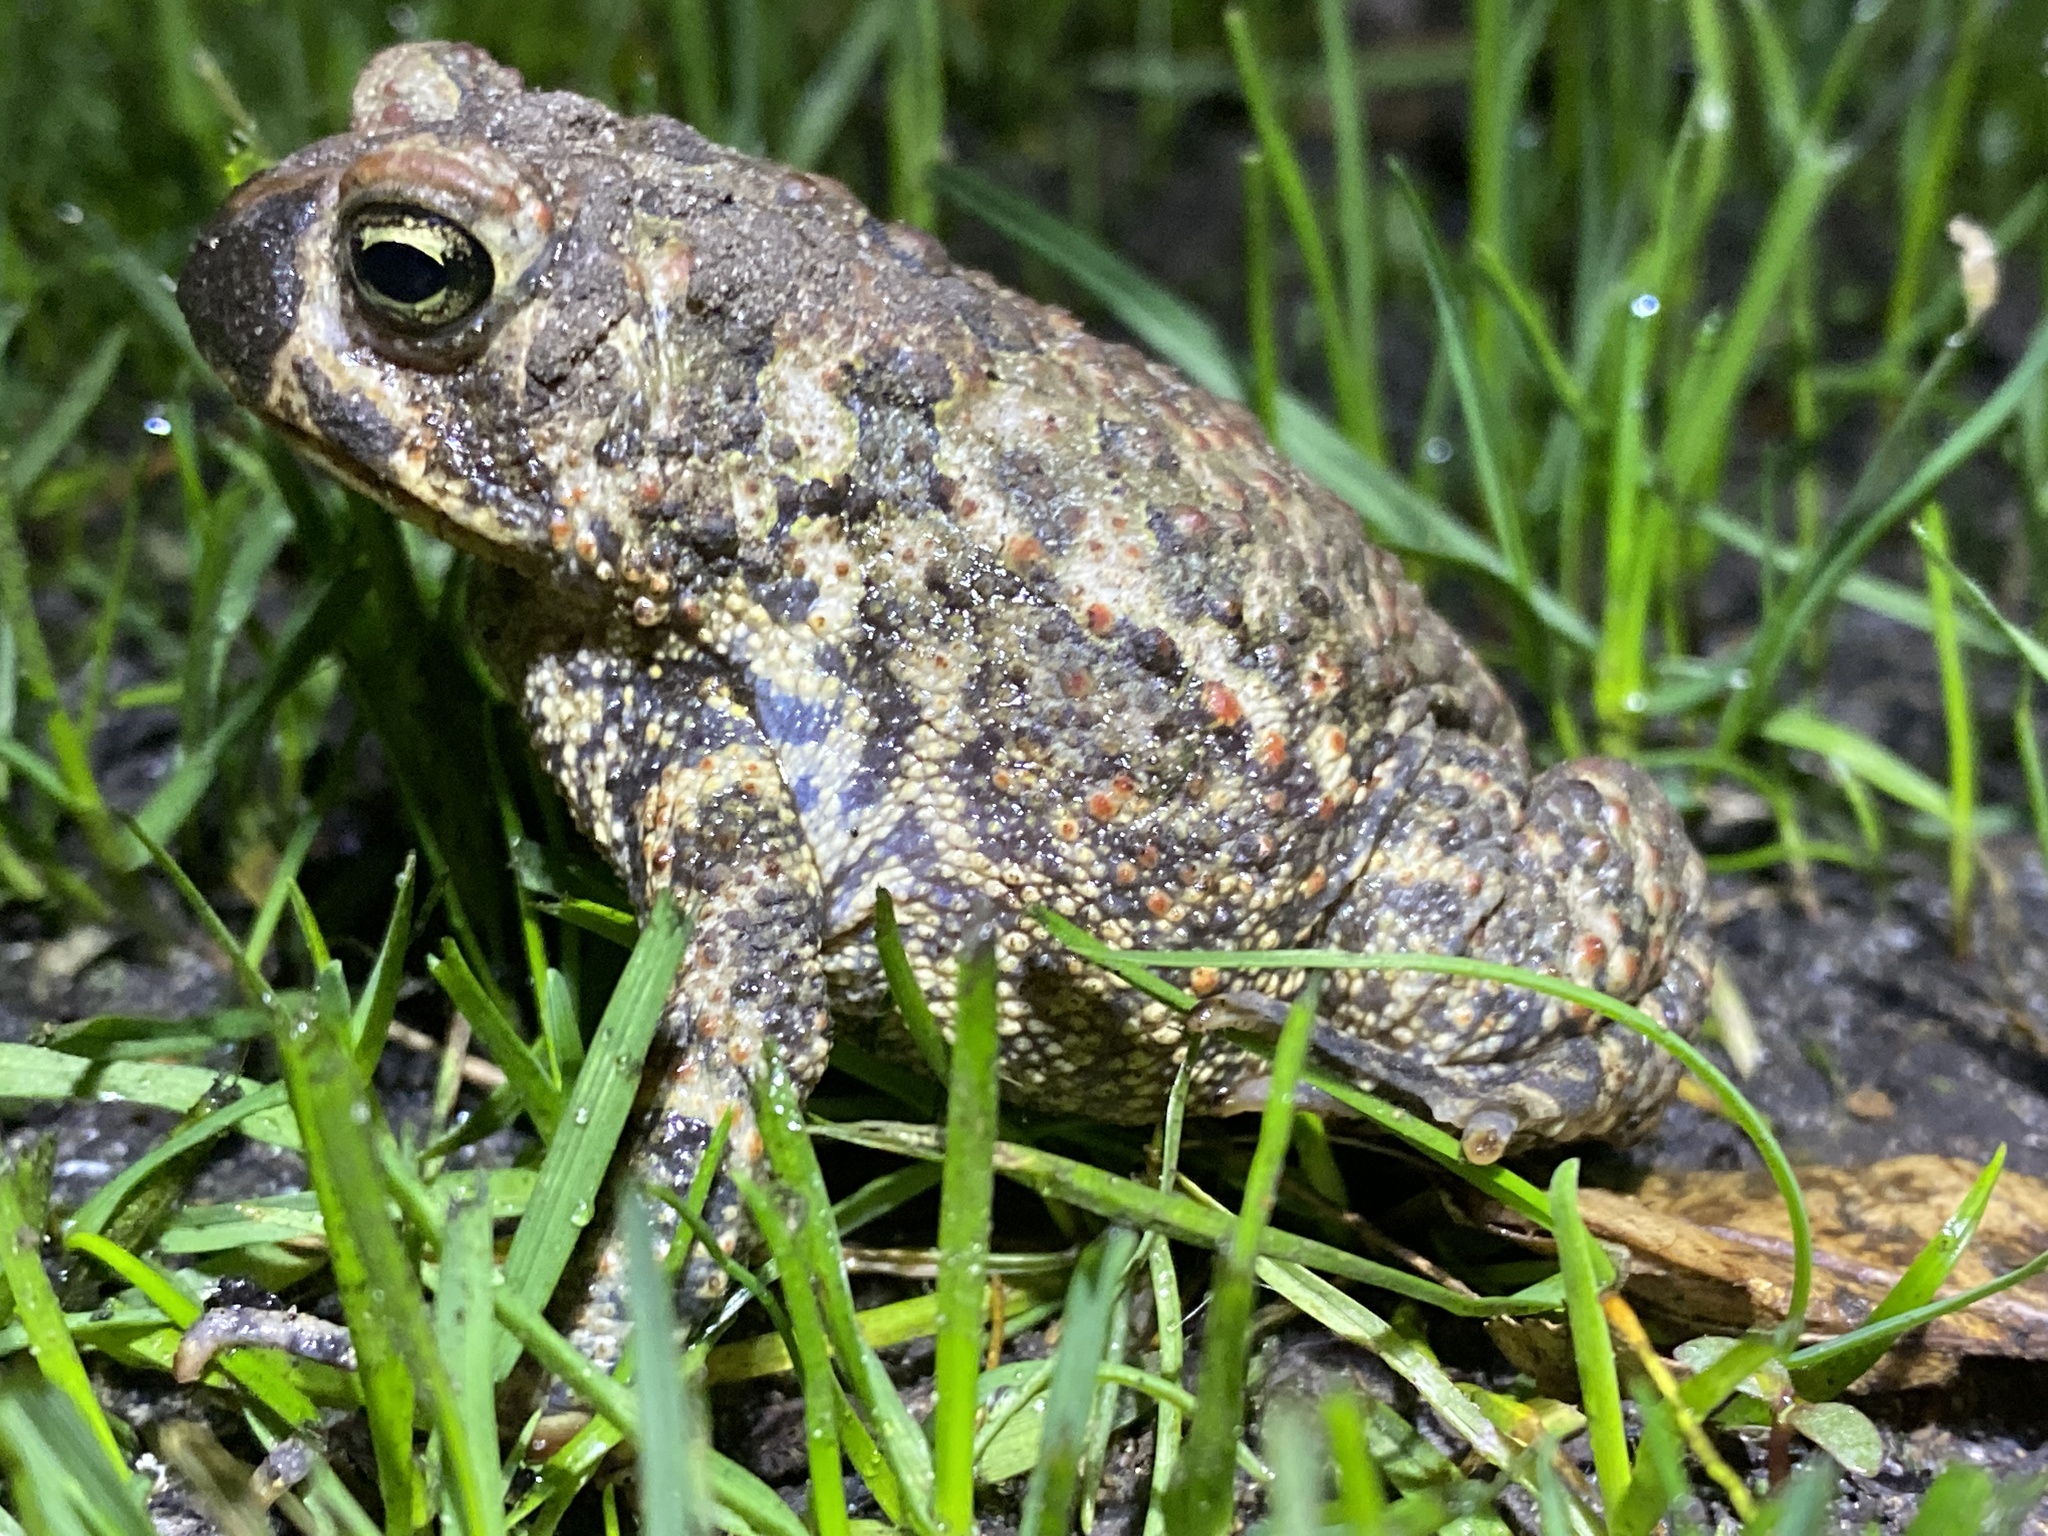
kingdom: Animalia
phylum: Chordata
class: Amphibia
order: Anura
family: Bufonidae
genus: Anaxyrus
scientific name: Anaxyrus americanus
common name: American toad
